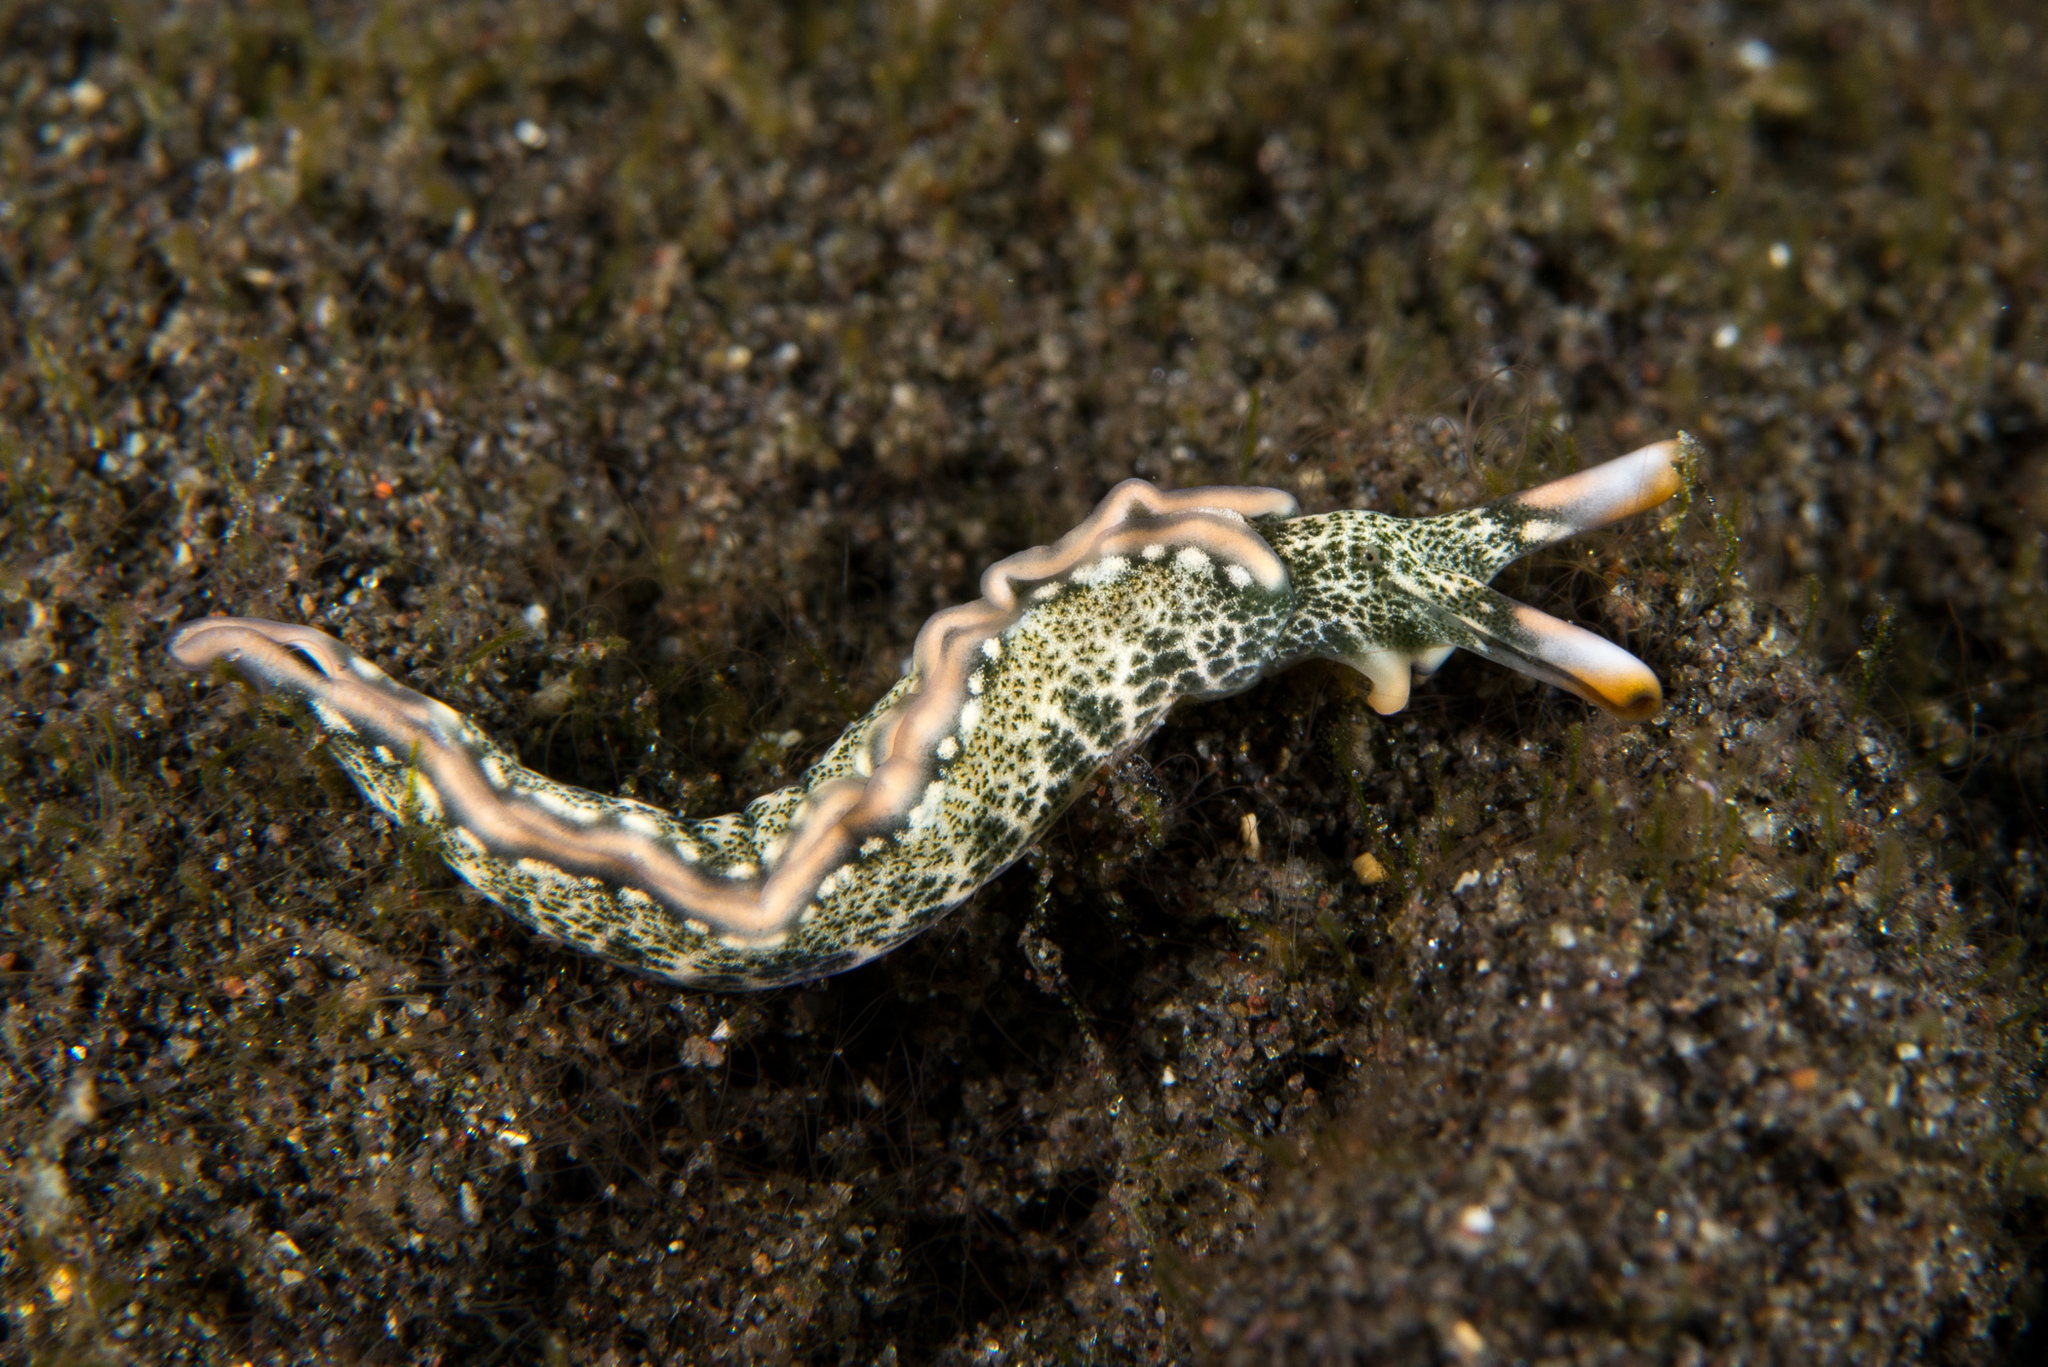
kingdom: Animalia
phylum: Mollusca
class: Gastropoda
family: Plakobranchidae
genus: Thuridilla
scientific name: Thuridilla carlsoni
